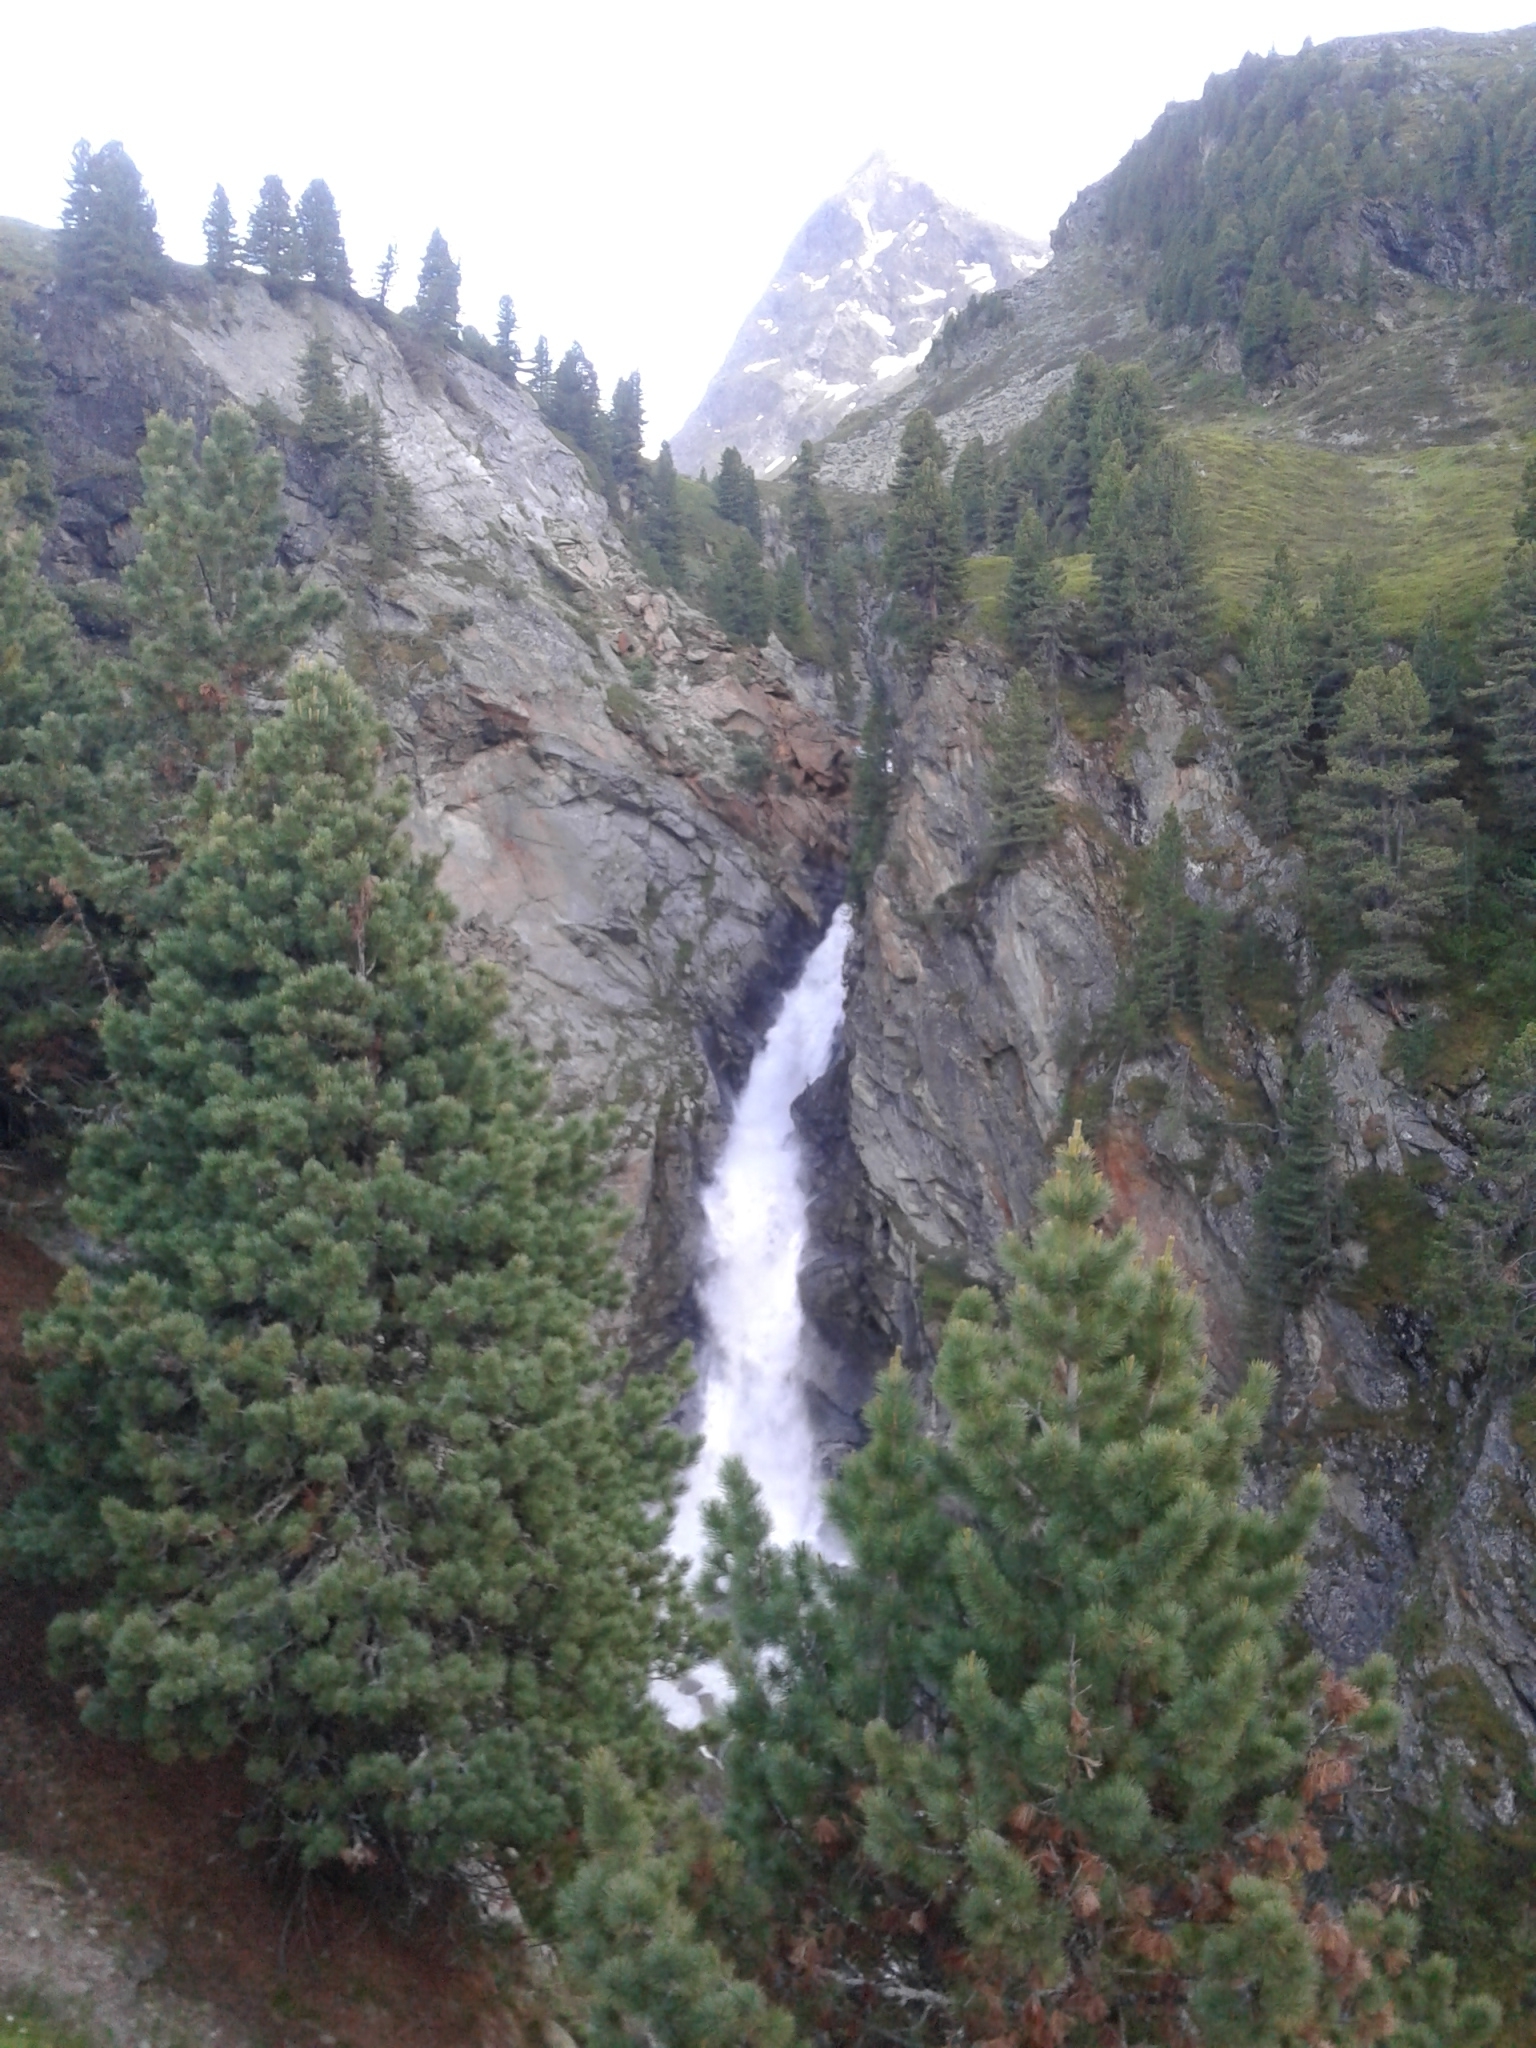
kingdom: Plantae
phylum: Tracheophyta
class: Pinopsida
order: Pinales
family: Pinaceae
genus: Pinus
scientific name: Pinus cembra
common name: Arolla pine
